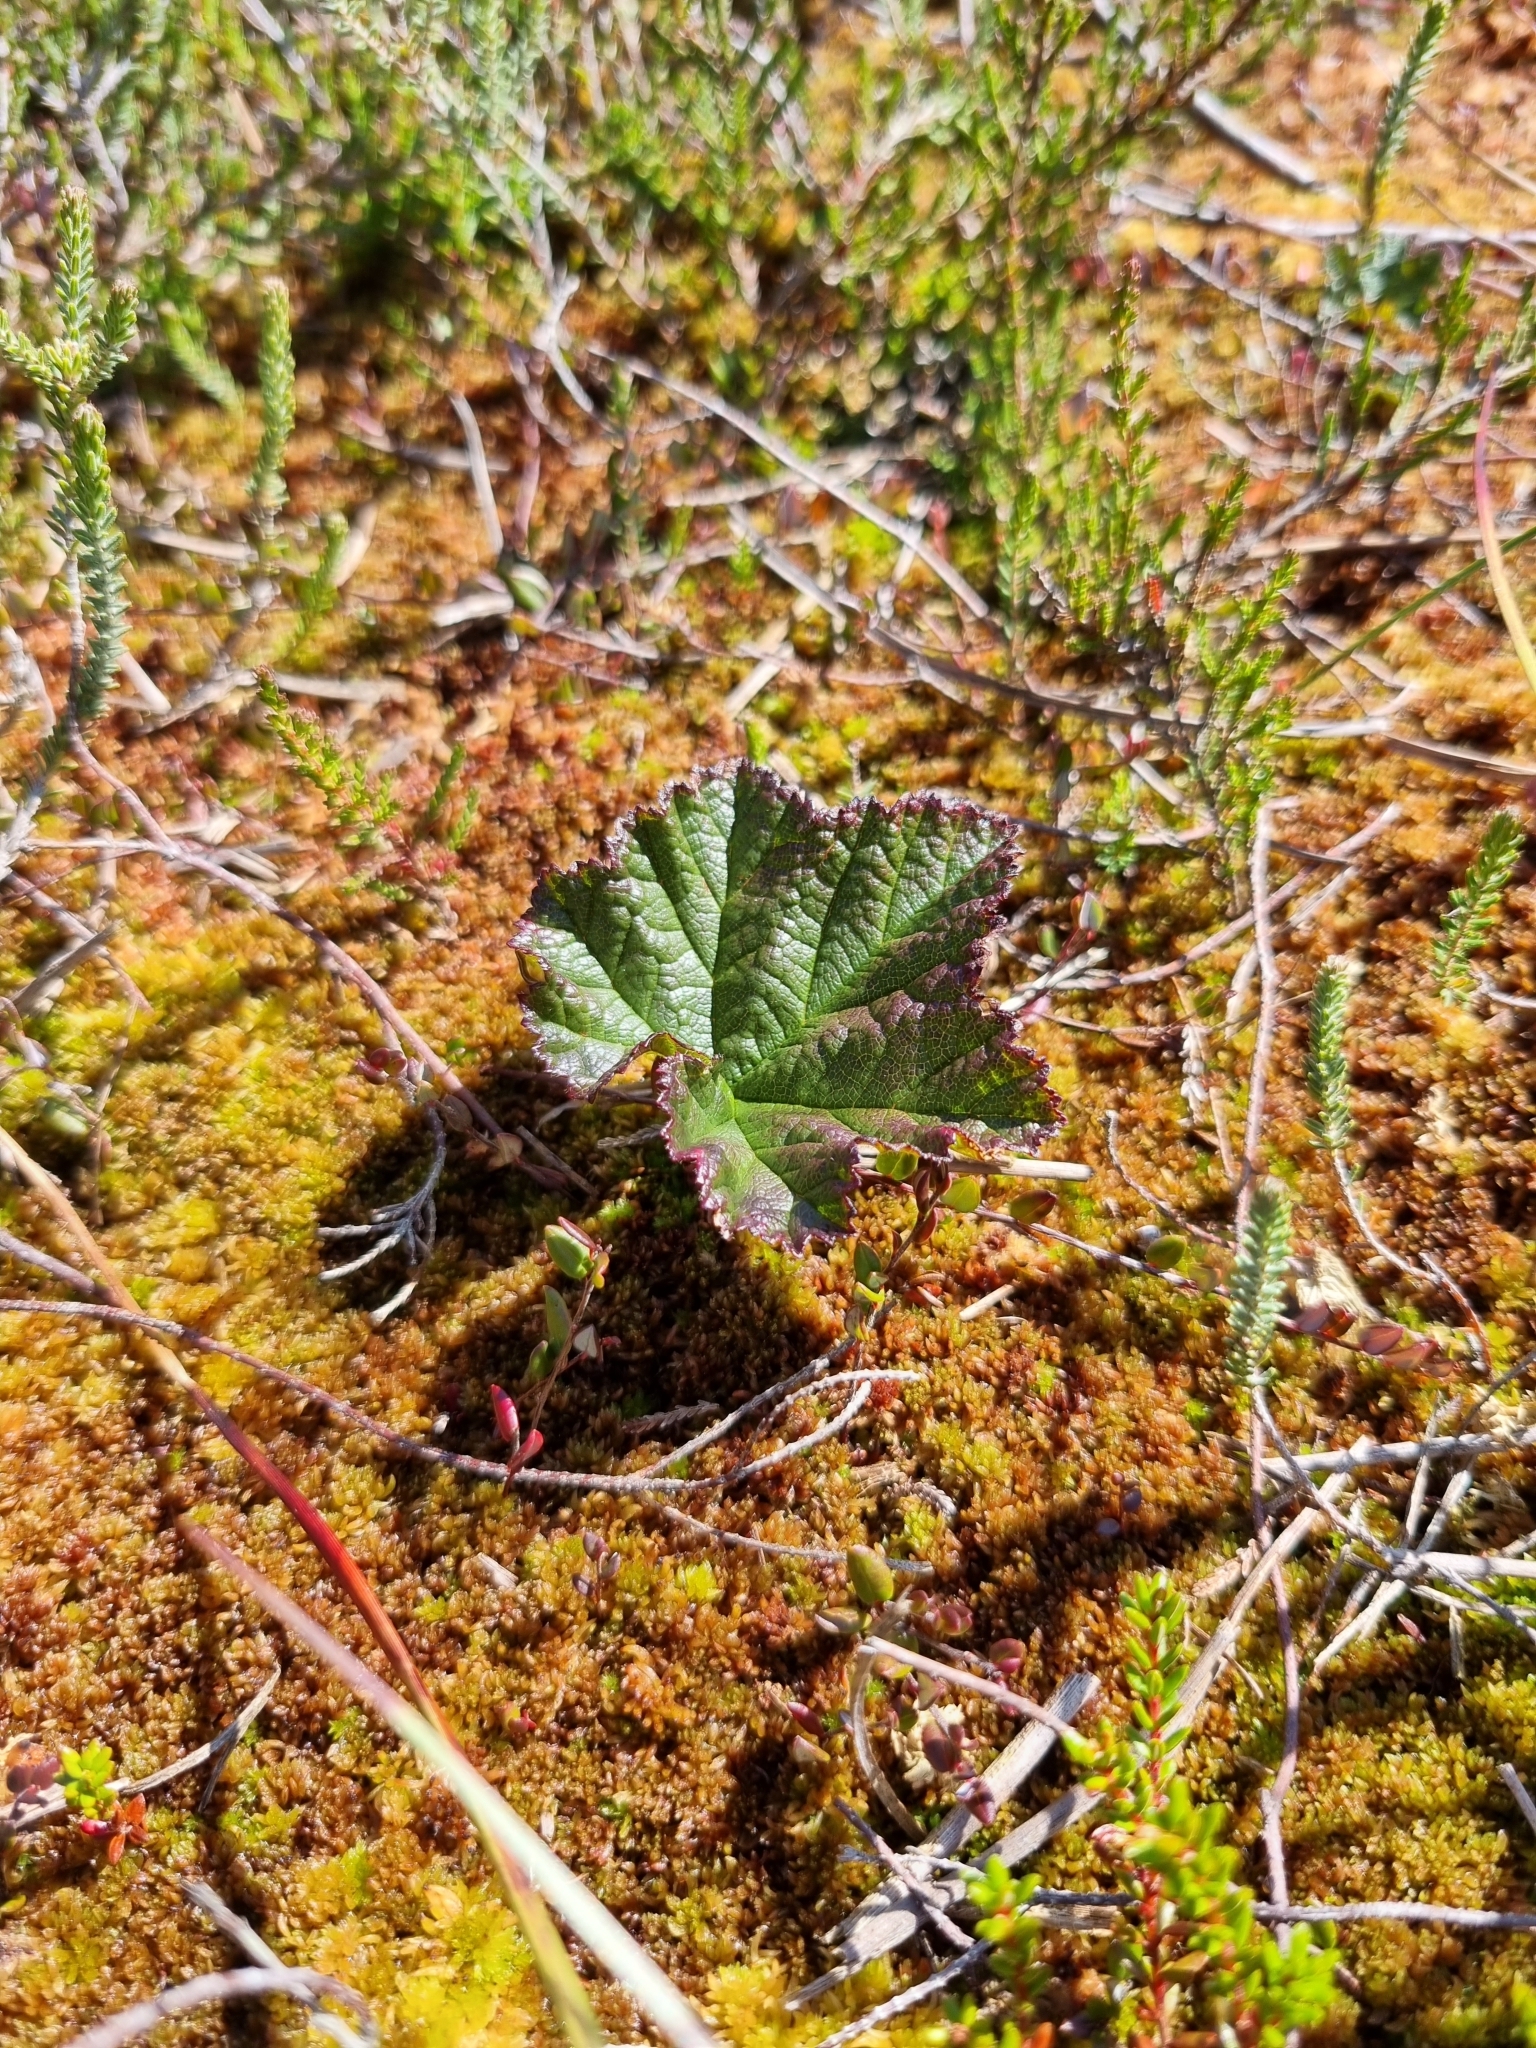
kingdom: Plantae
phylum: Tracheophyta
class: Magnoliopsida
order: Rosales
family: Rosaceae
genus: Rubus
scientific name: Rubus chamaemorus
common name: Cloudberry
